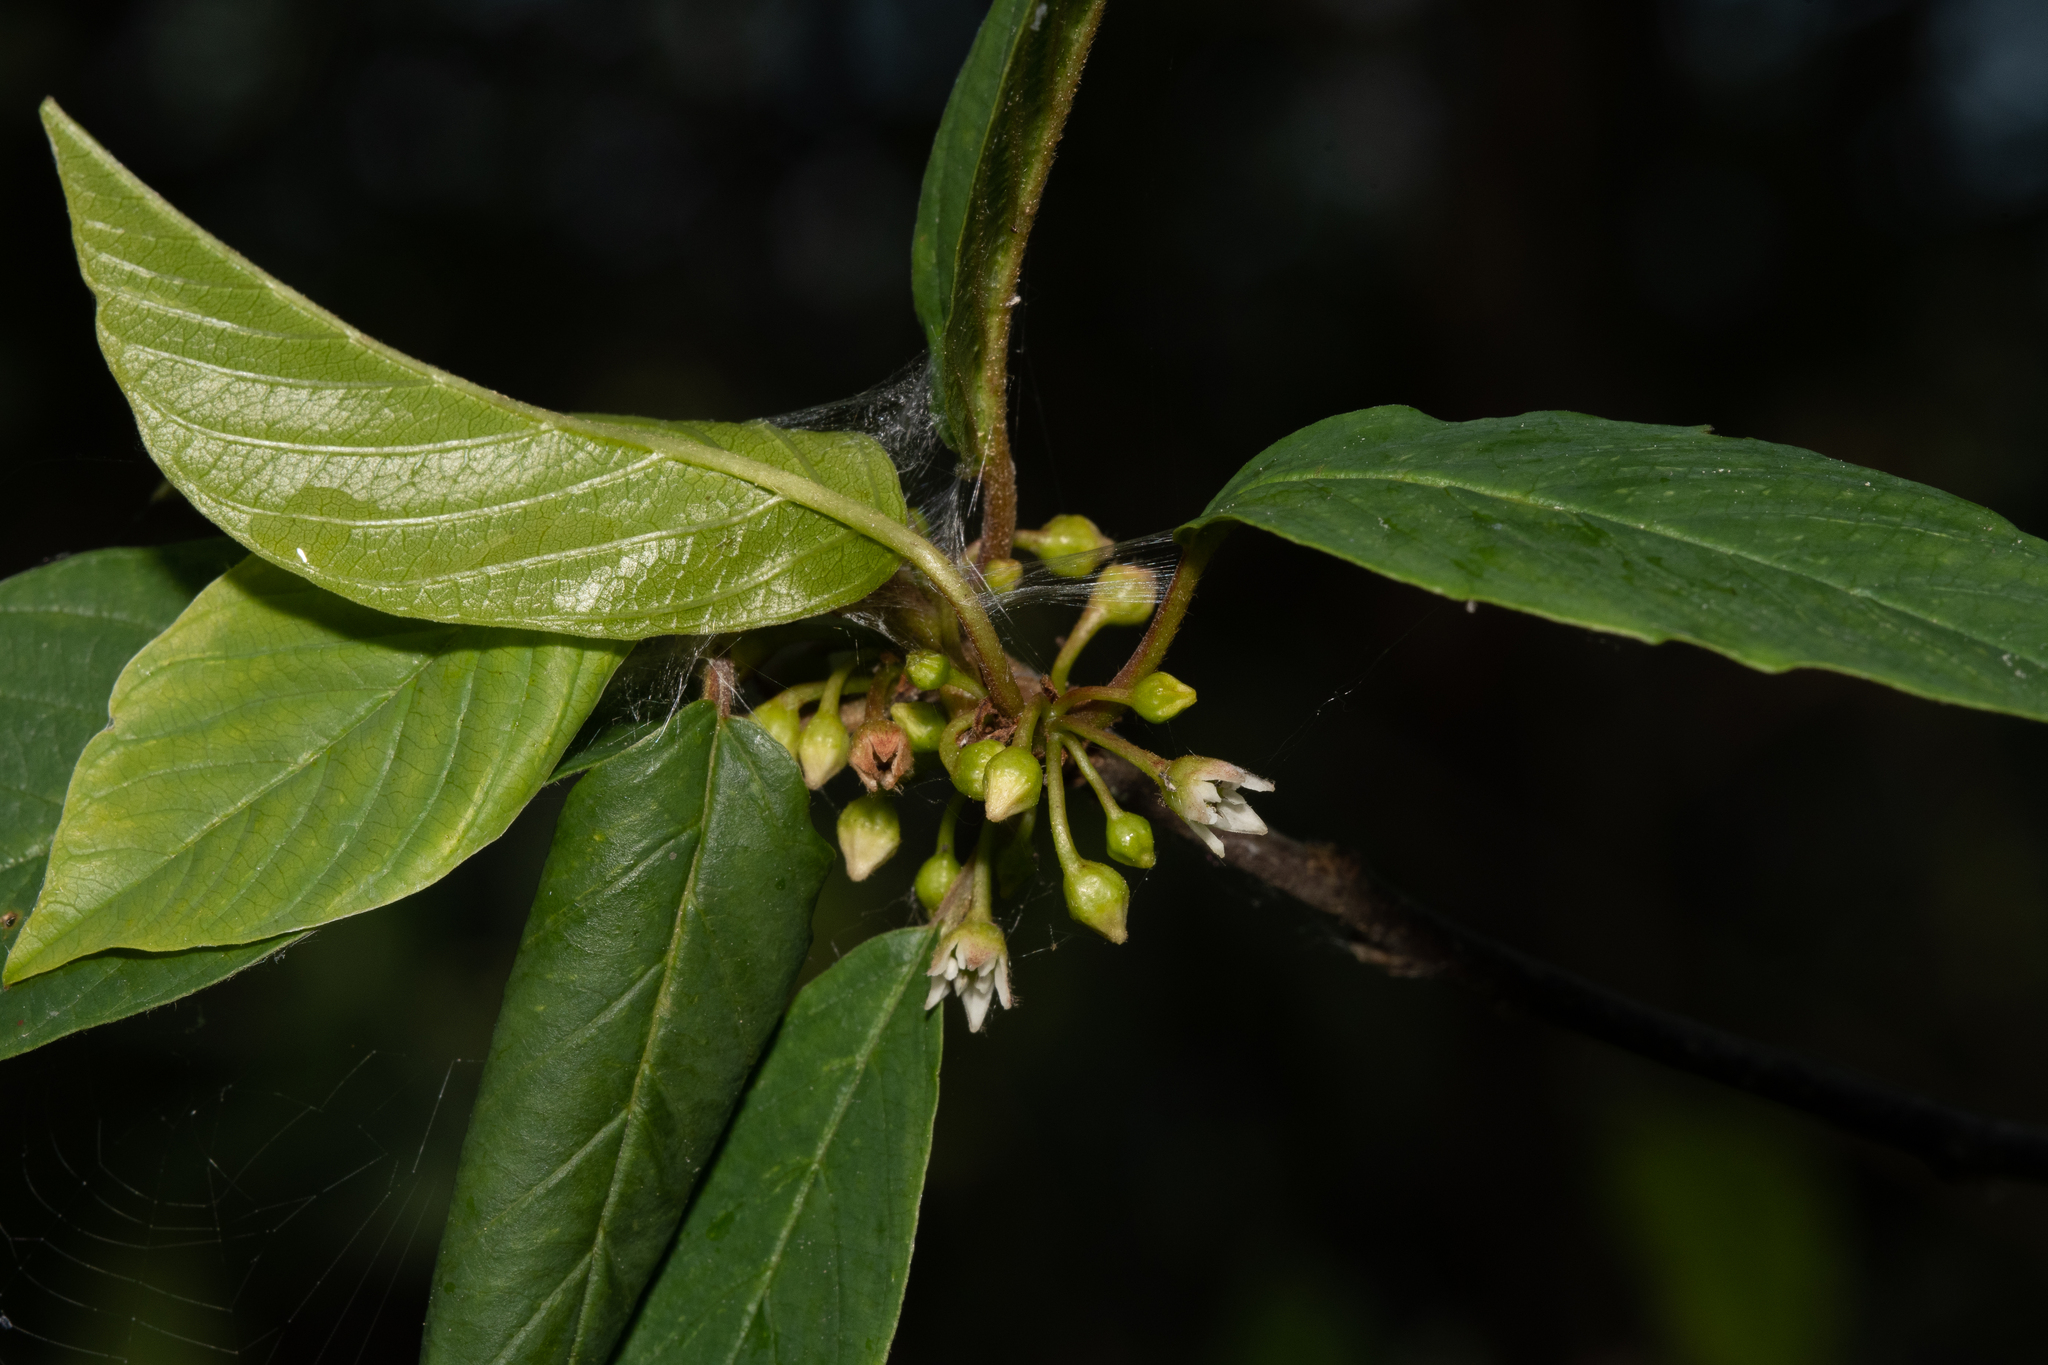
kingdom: Plantae
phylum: Tracheophyta
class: Magnoliopsida
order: Rosales
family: Rhamnaceae
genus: Frangula
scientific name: Frangula alnus
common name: Alder buckthorn
